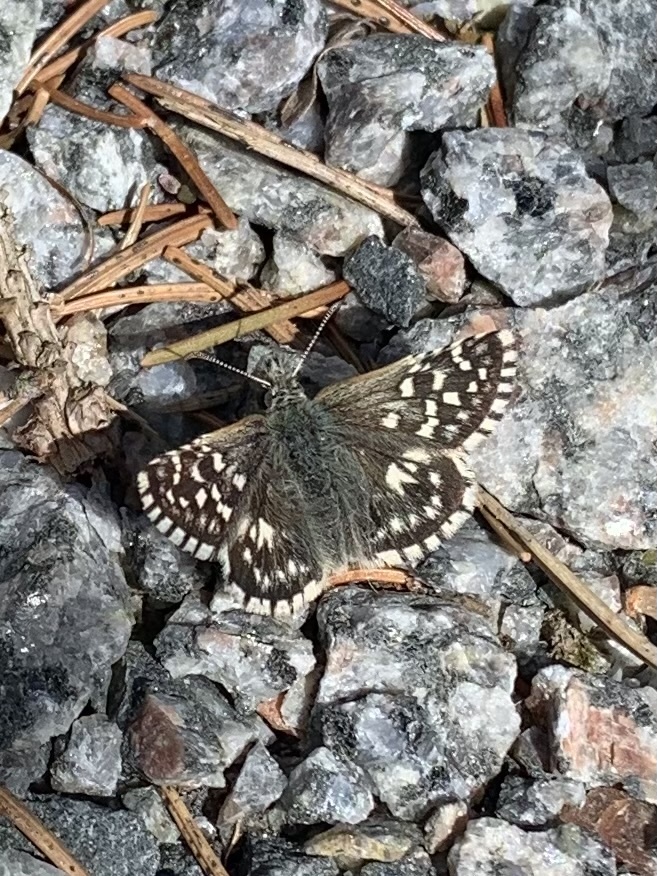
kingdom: Animalia
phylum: Arthropoda
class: Insecta
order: Lepidoptera
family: Hesperiidae
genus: Pyrgus
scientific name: Pyrgus malvae
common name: Grizzled skipper
